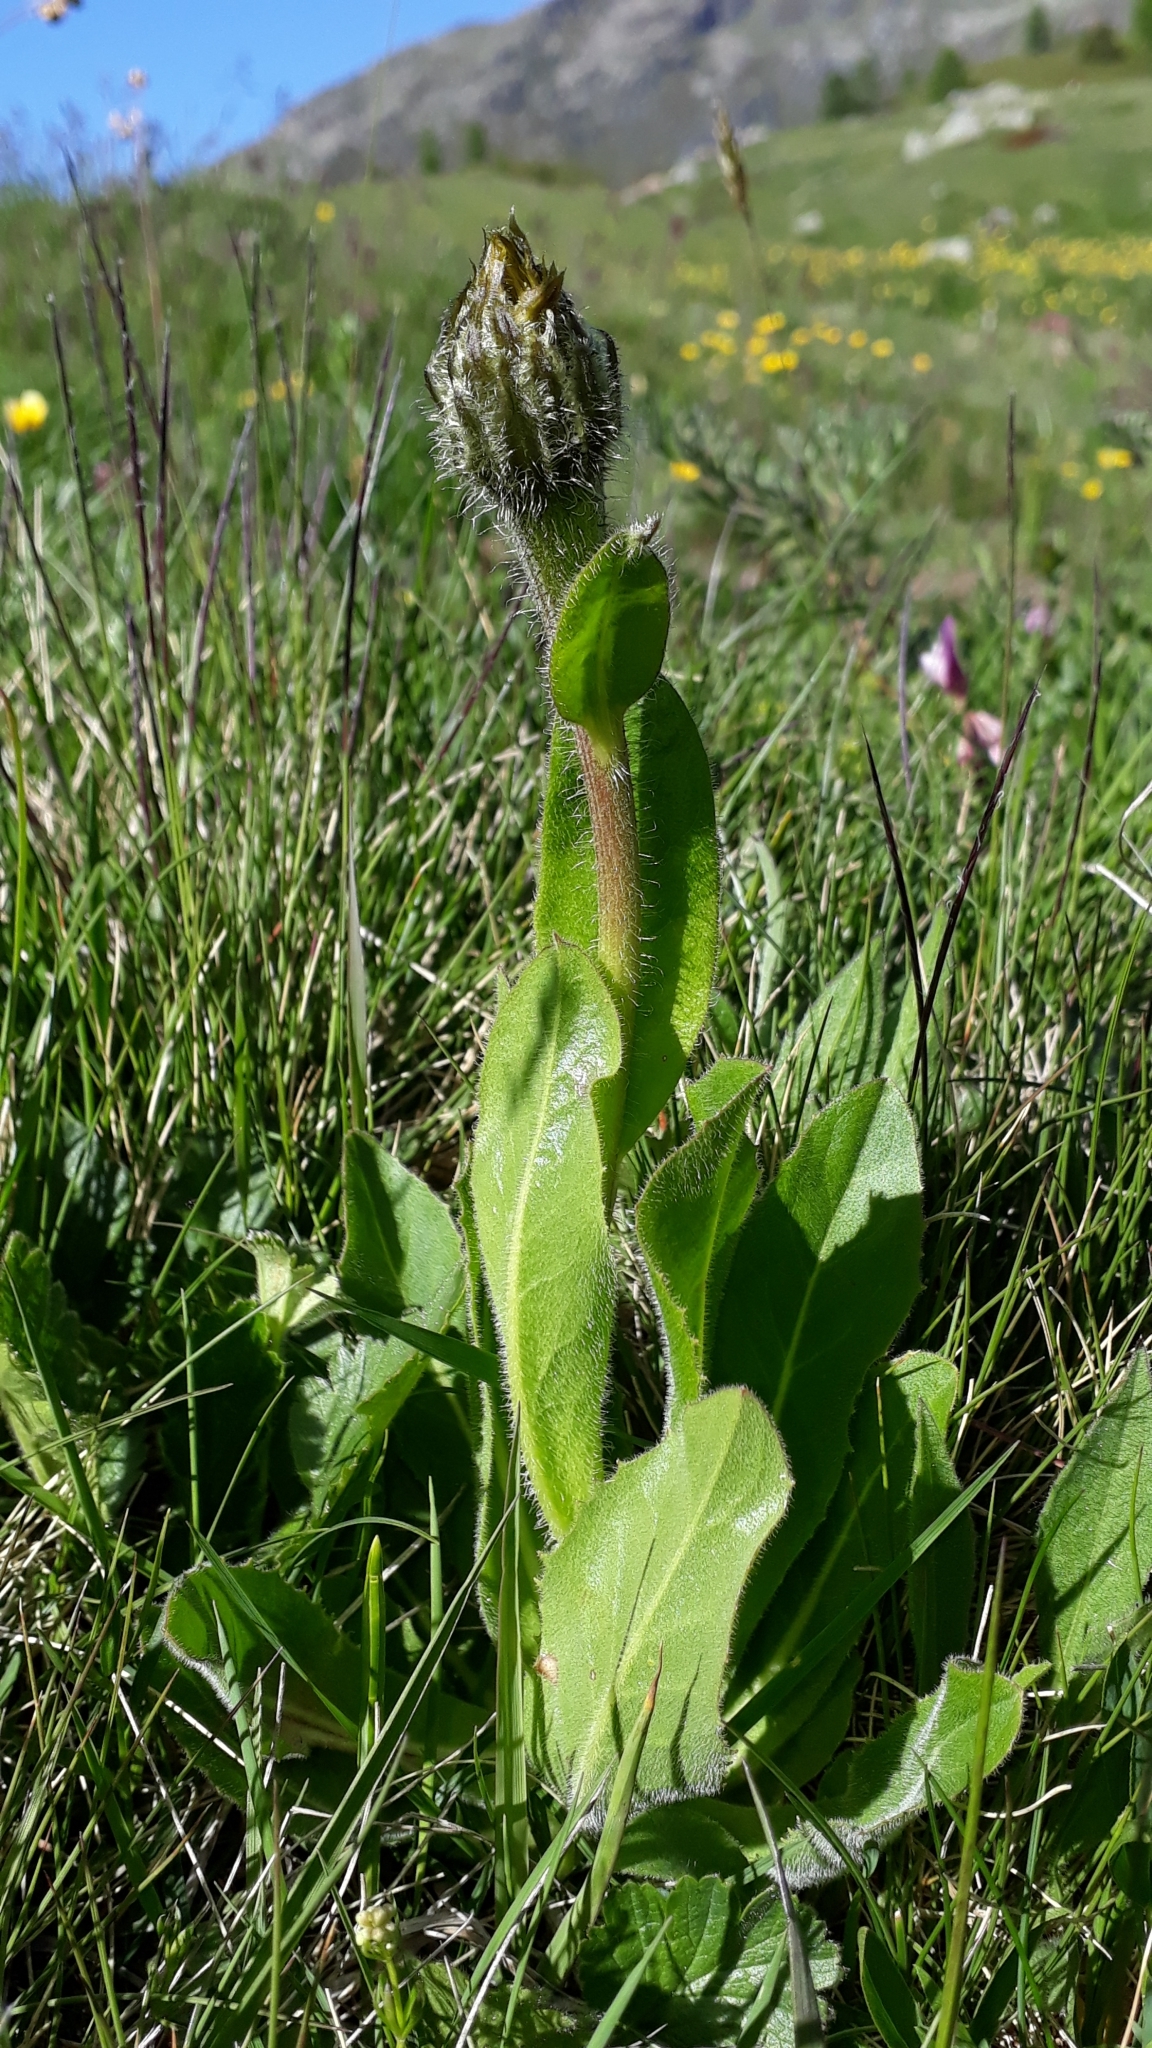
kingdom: Plantae
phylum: Tracheophyta
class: Magnoliopsida
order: Asterales
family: Asteraceae
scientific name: Asteraceae
